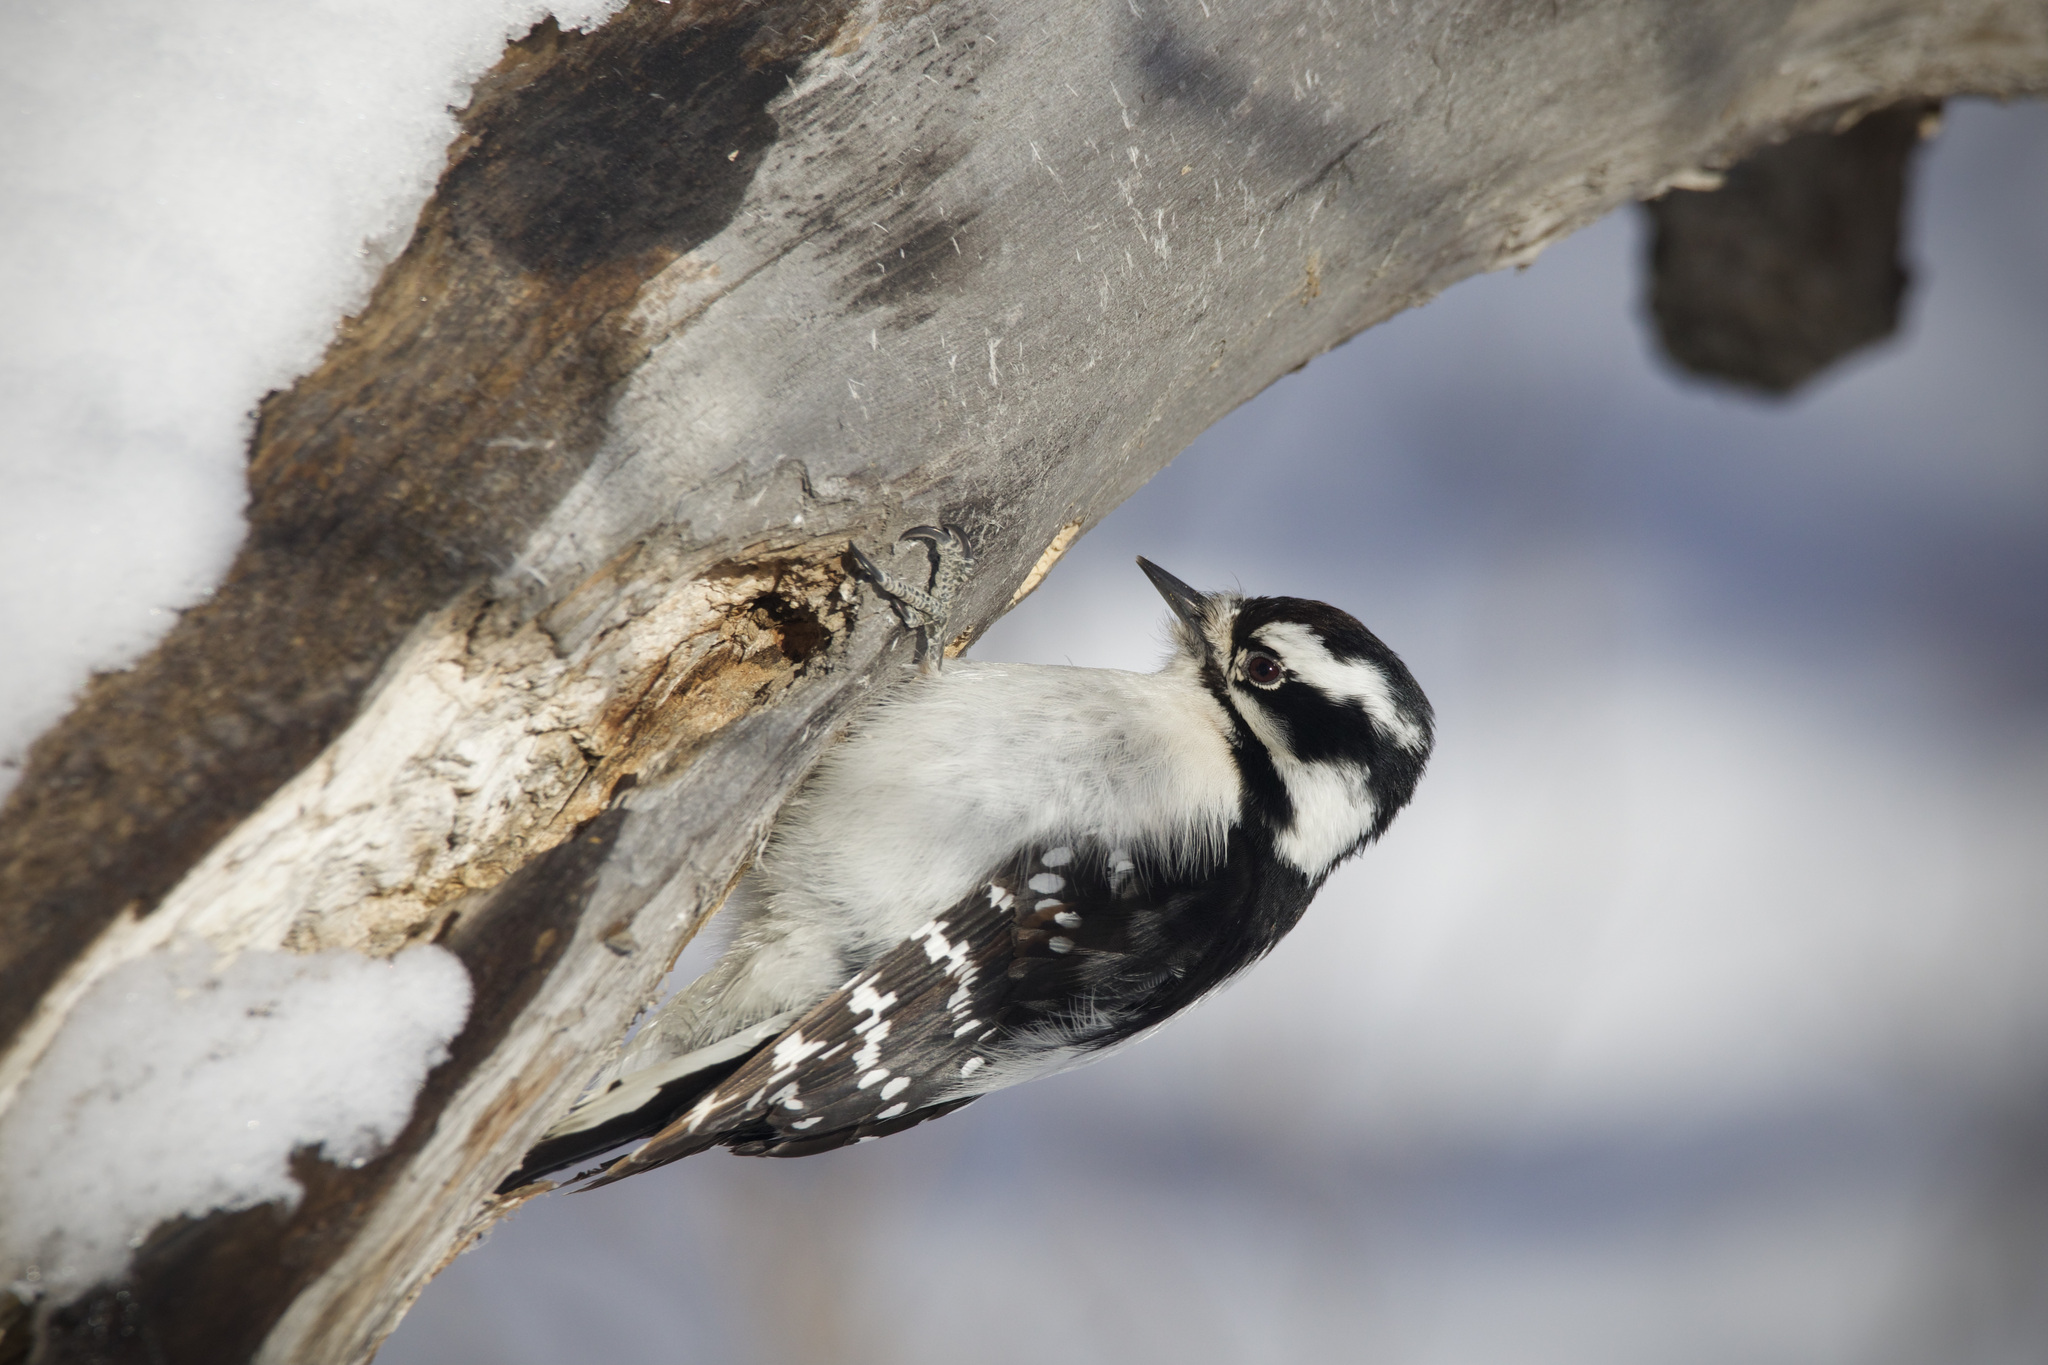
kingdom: Animalia
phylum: Chordata
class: Aves
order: Piciformes
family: Picidae
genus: Dryobates
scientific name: Dryobates pubescens
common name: Downy woodpecker
